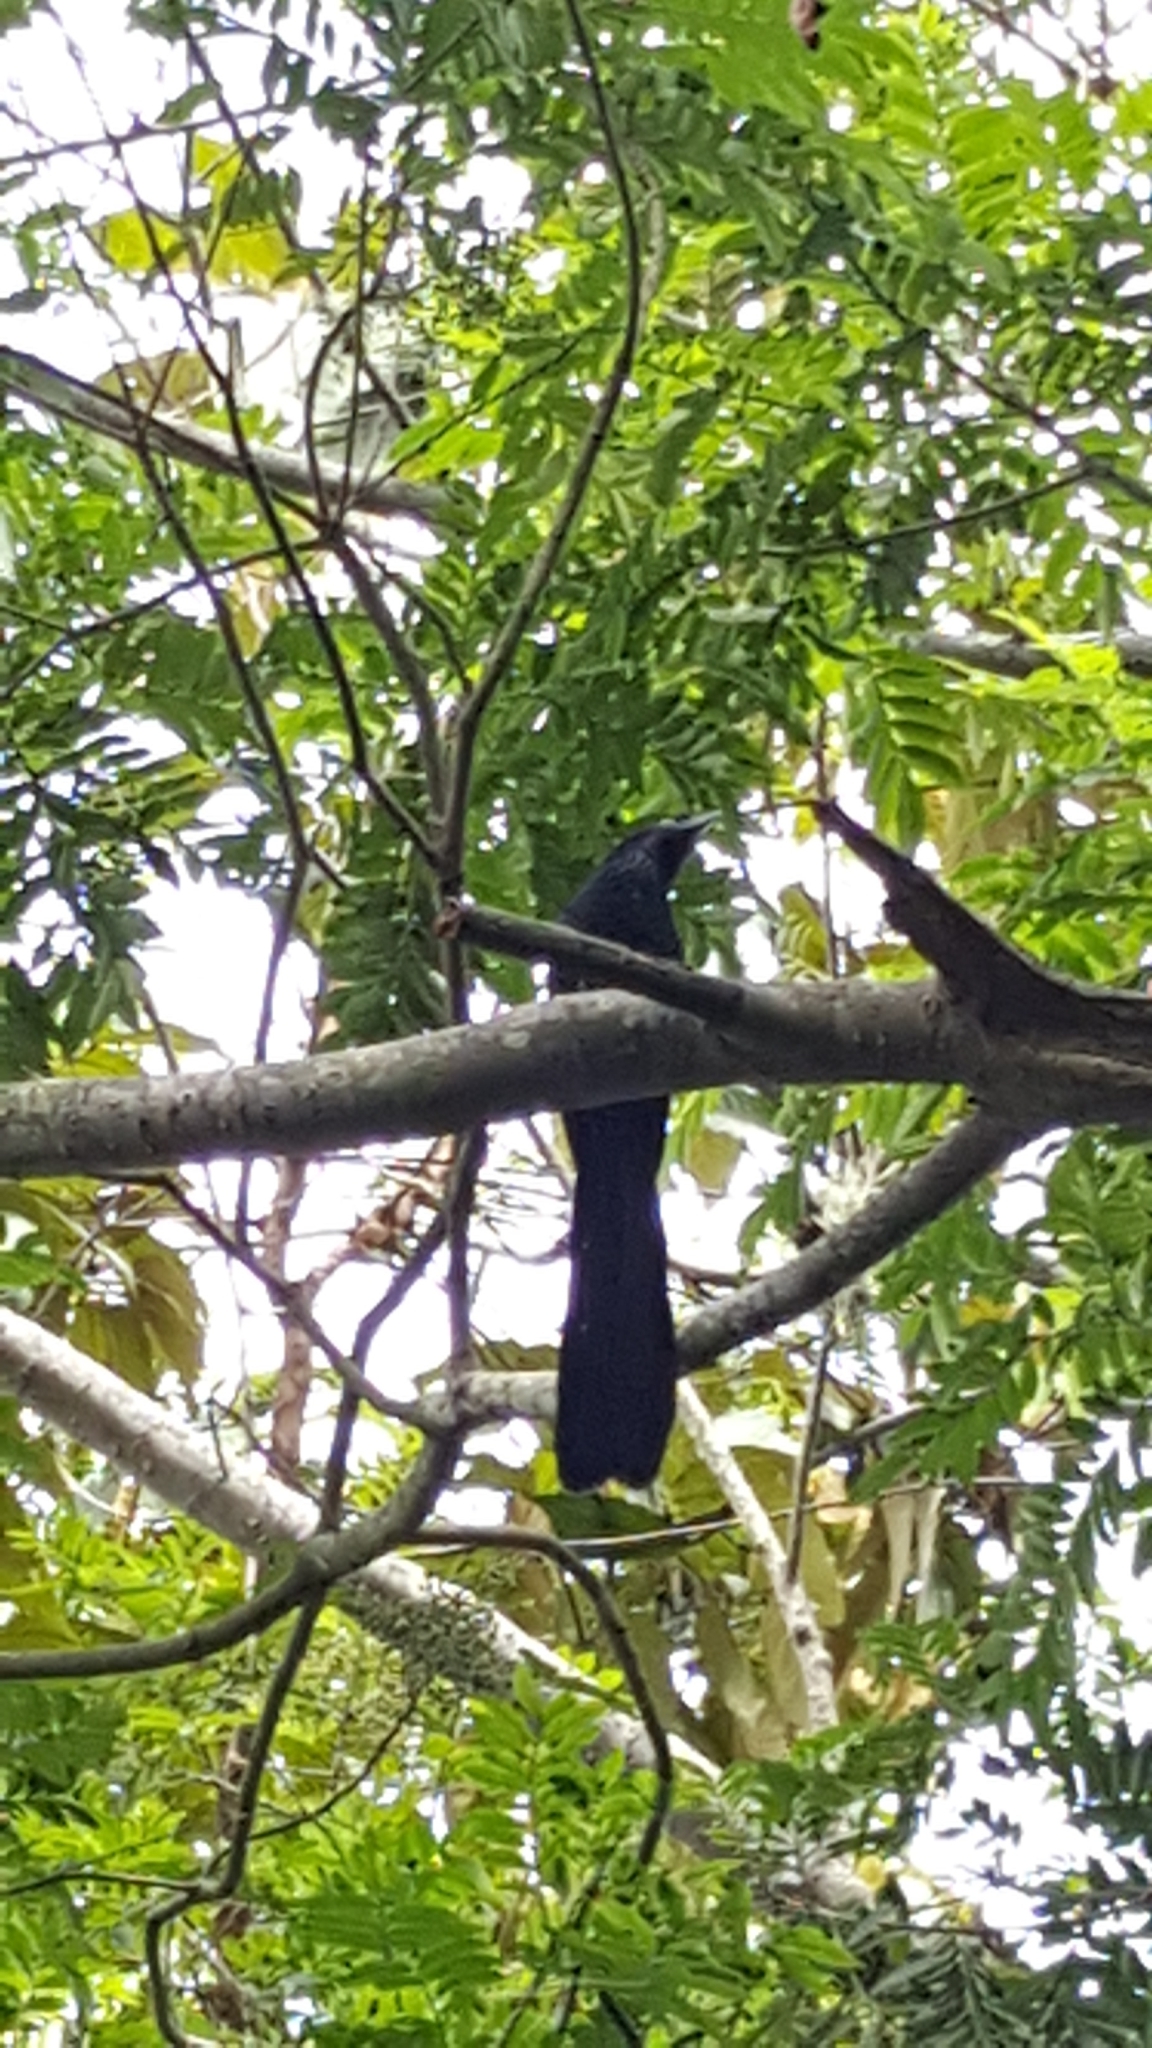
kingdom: Animalia
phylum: Chordata
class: Aves
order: Cuculiformes
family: Cuculidae
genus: Crotophaga
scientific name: Crotophaga sulcirostris
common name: Groove-billed ani
